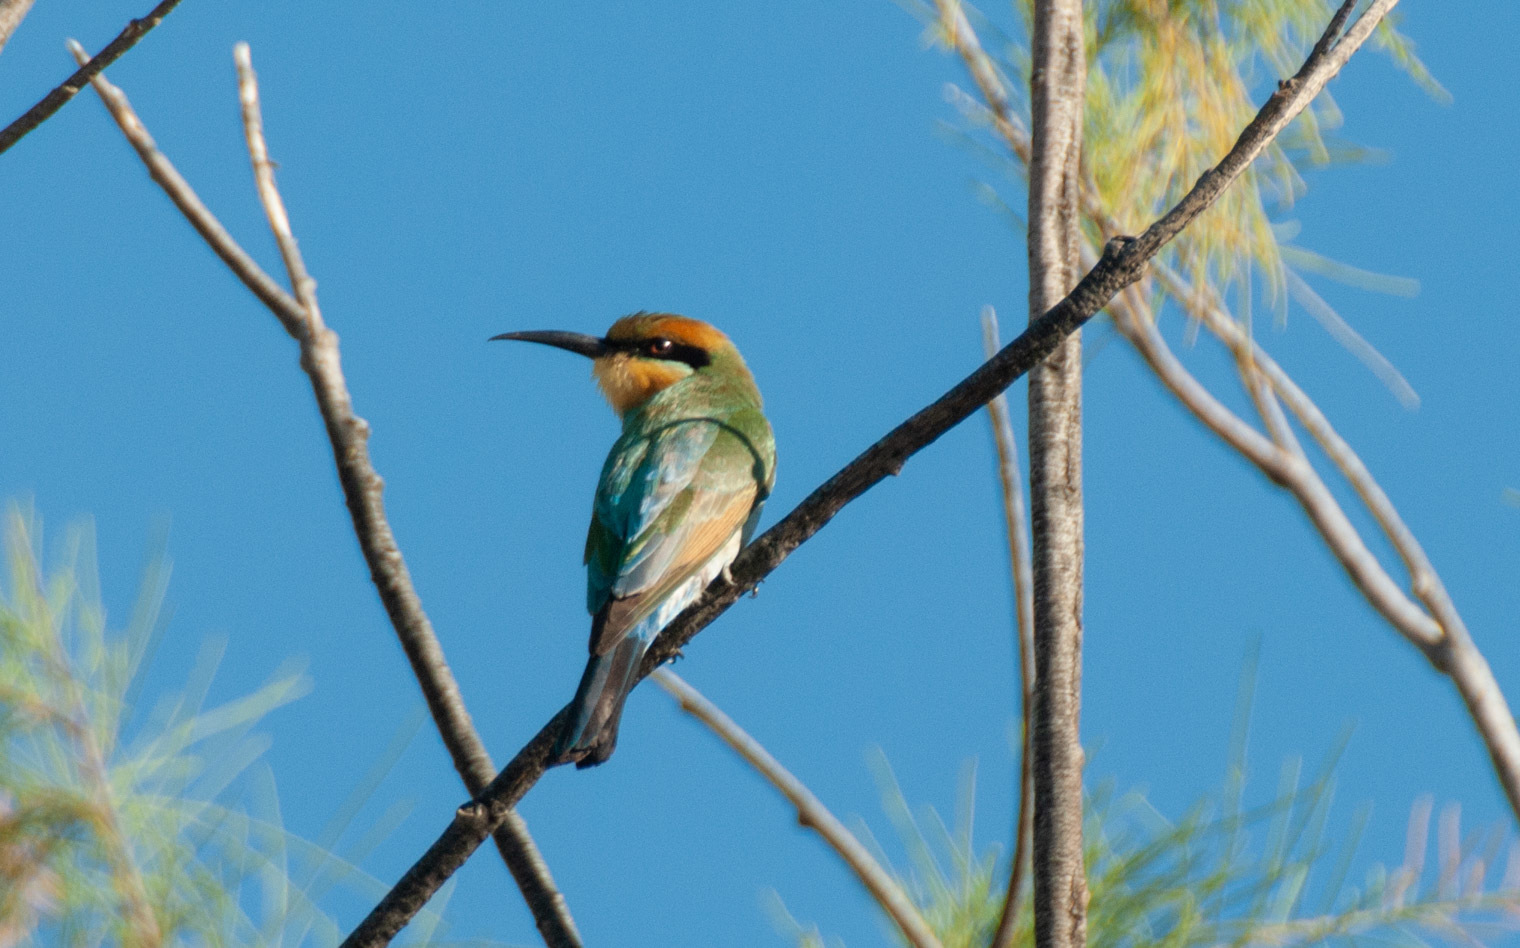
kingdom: Animalia
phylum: Chordata
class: Aves
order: Coraciiformes
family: Meropidae
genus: Merops
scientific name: Merops ornatus
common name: Rainbow bee-eater
